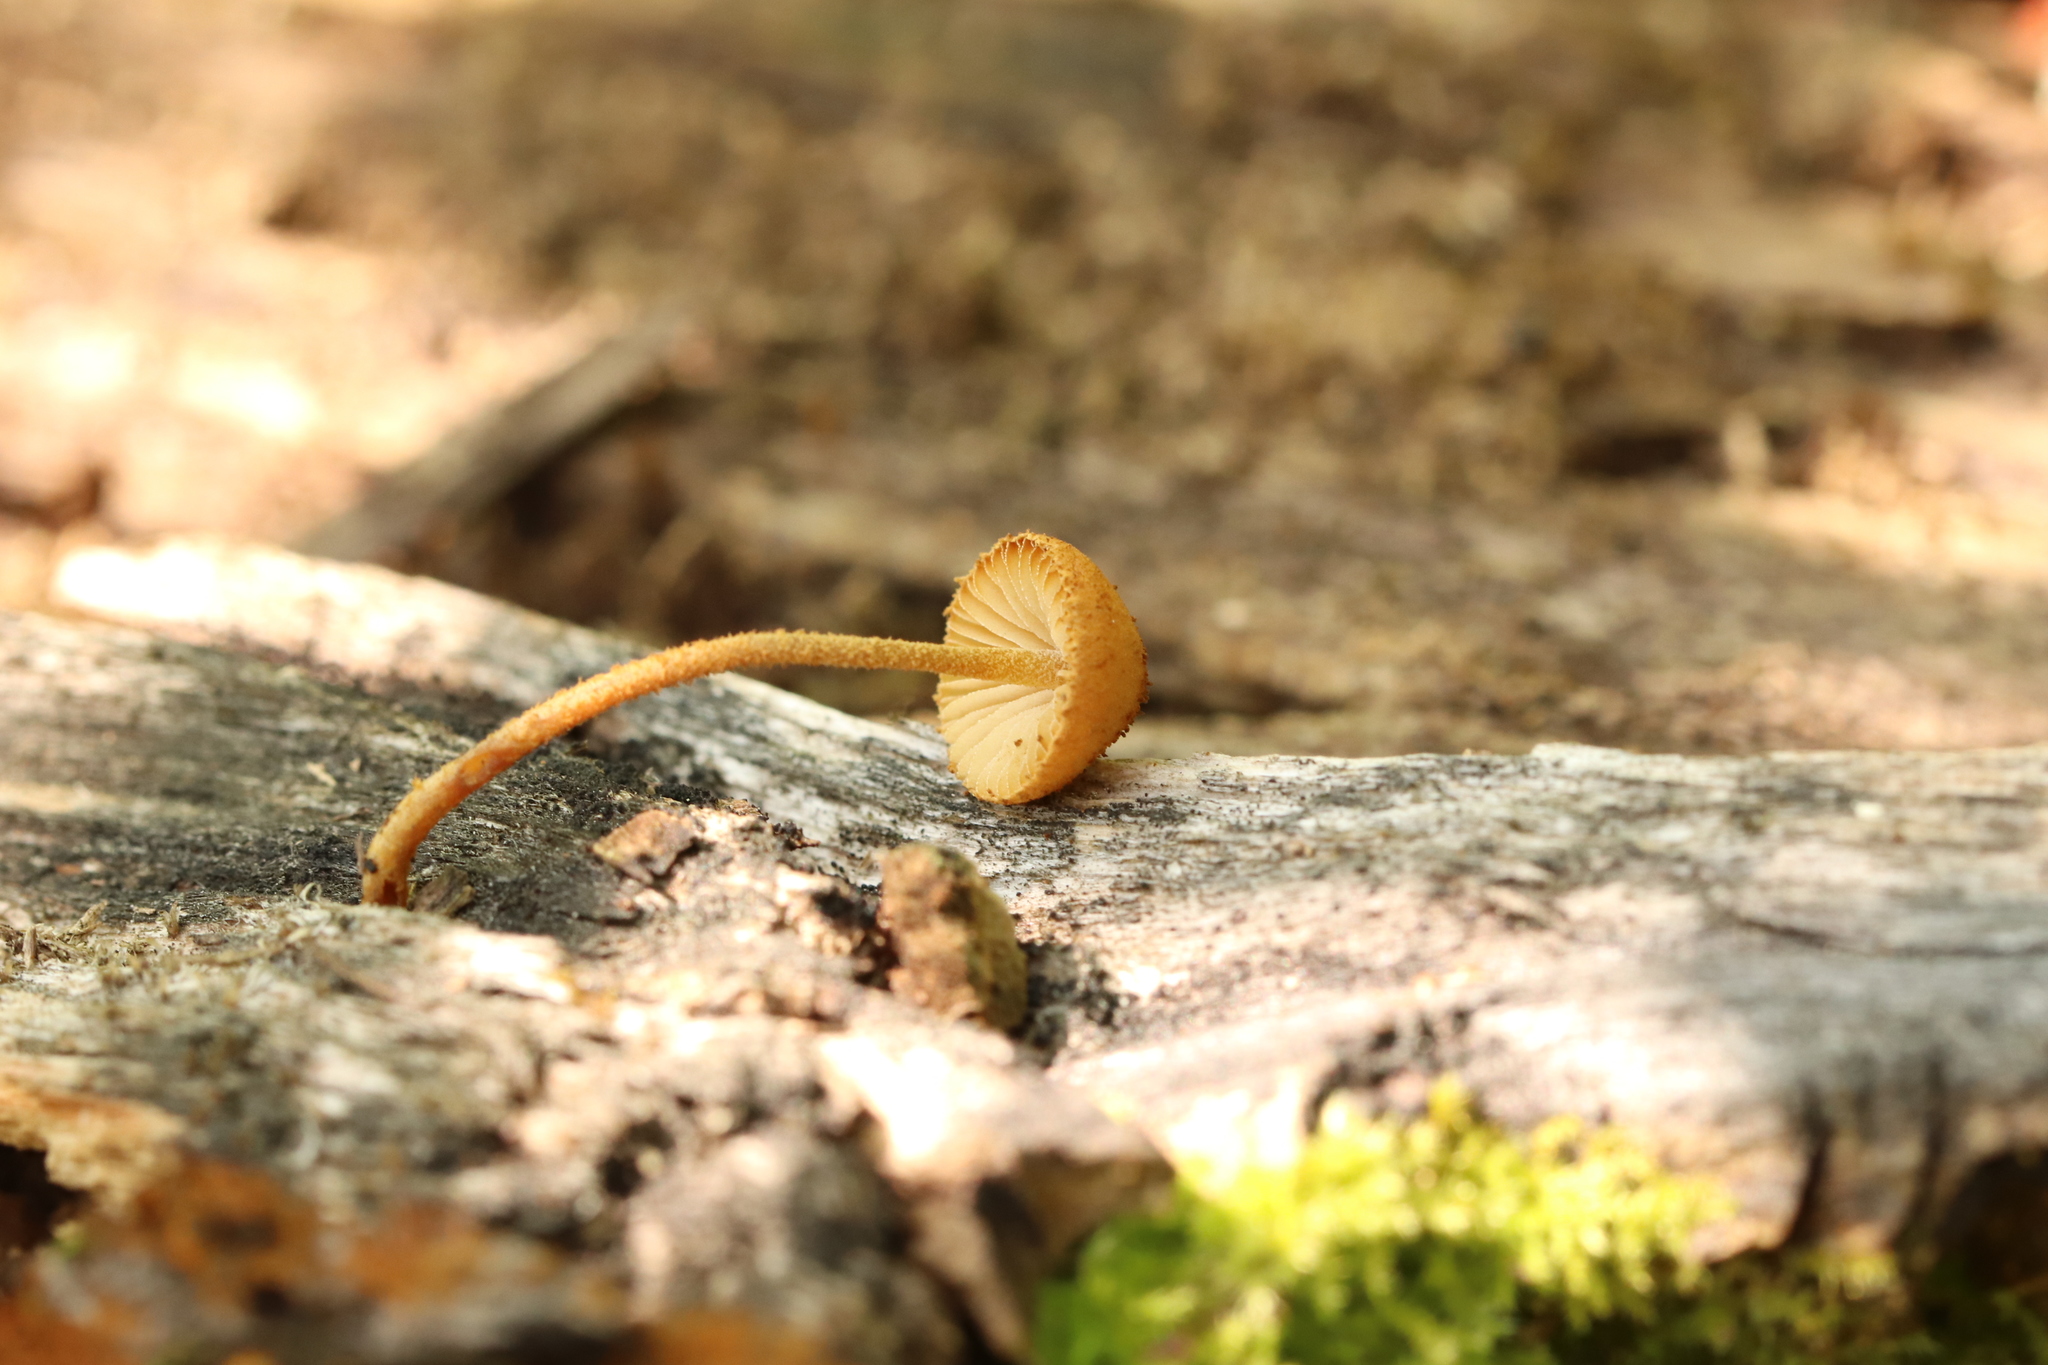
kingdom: Fungi
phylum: Basidiomycota
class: Agaricomycetes
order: Agaricales
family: Tubariaceae
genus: Flammulaster
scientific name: Flammulaster limulatus
